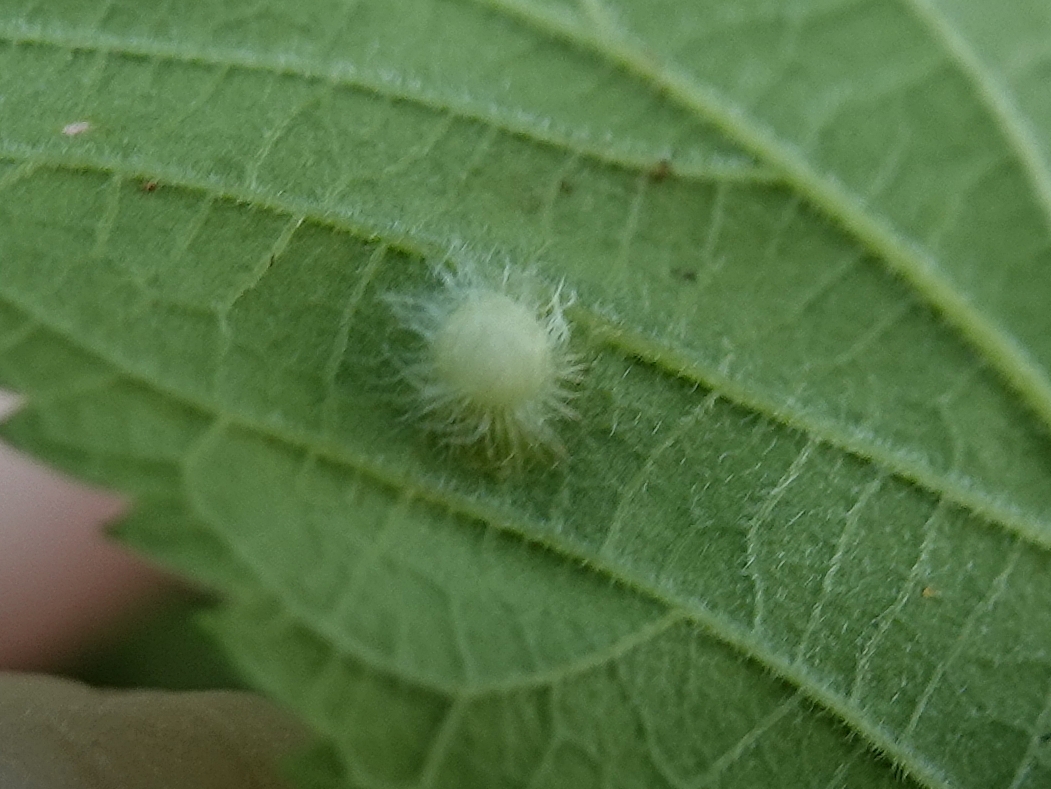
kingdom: Animalia
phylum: Arthropoda
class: Insecta
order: Hemiptera
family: Aphalaridae
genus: Pachypsylla
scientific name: Pachypsylla celtidismamma
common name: Hackberry nipplegall psyllid
